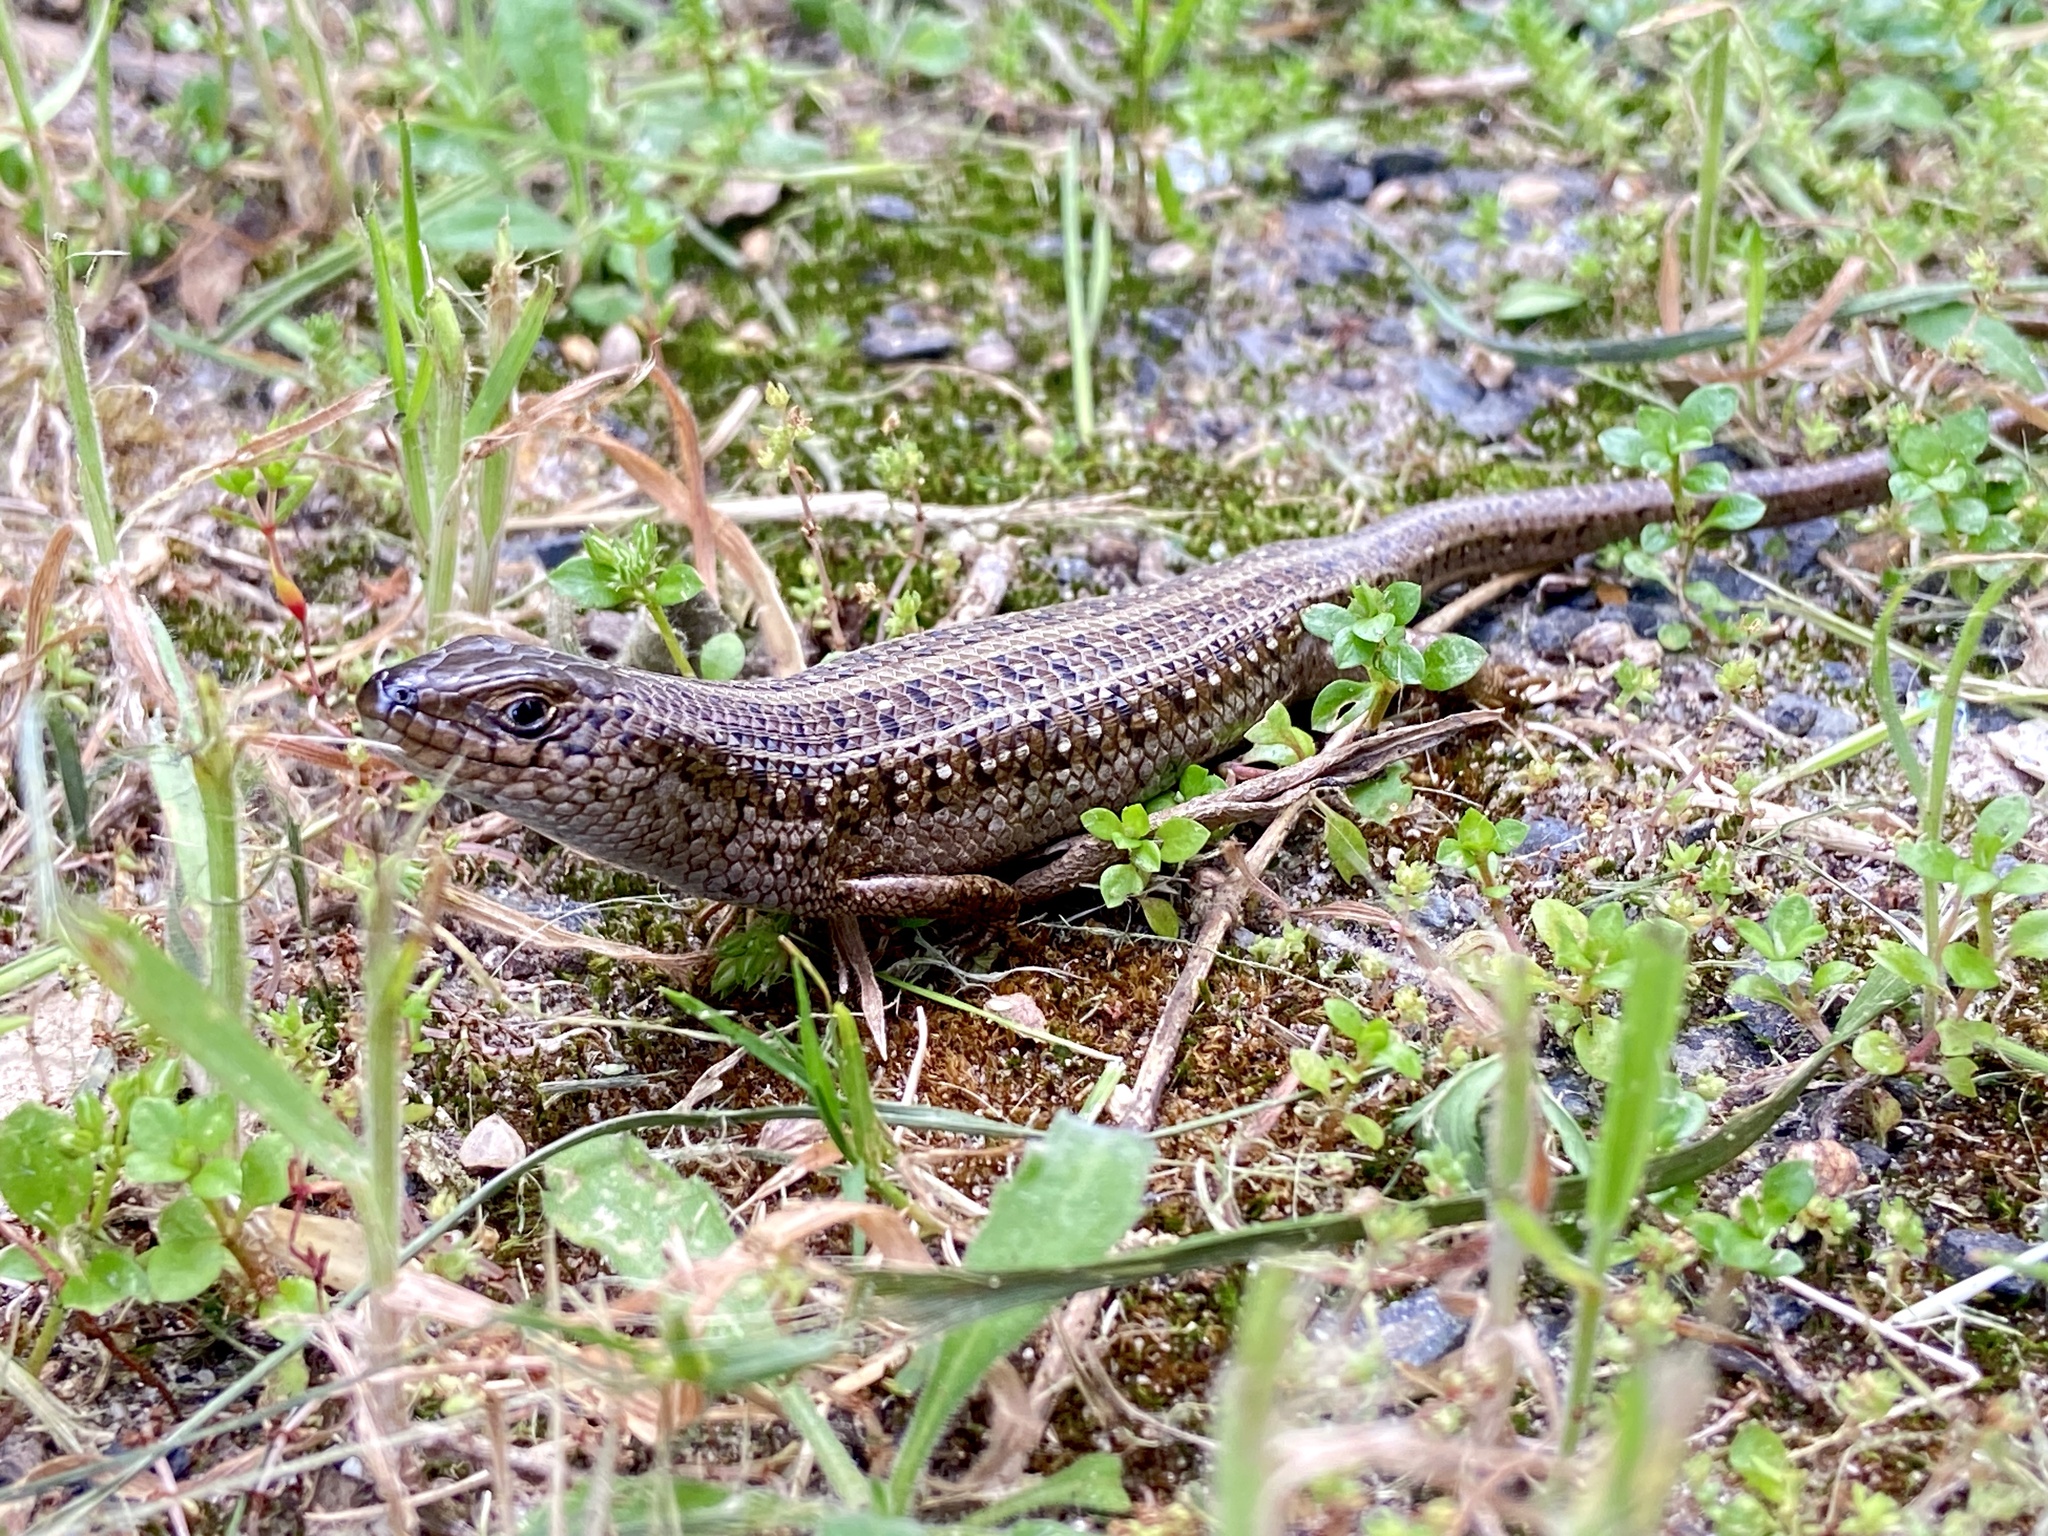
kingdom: Animalia
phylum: Chordata
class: Squamata
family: Scincidae
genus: Trachylepis
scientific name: Trachylepis capensis
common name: Cape skink
